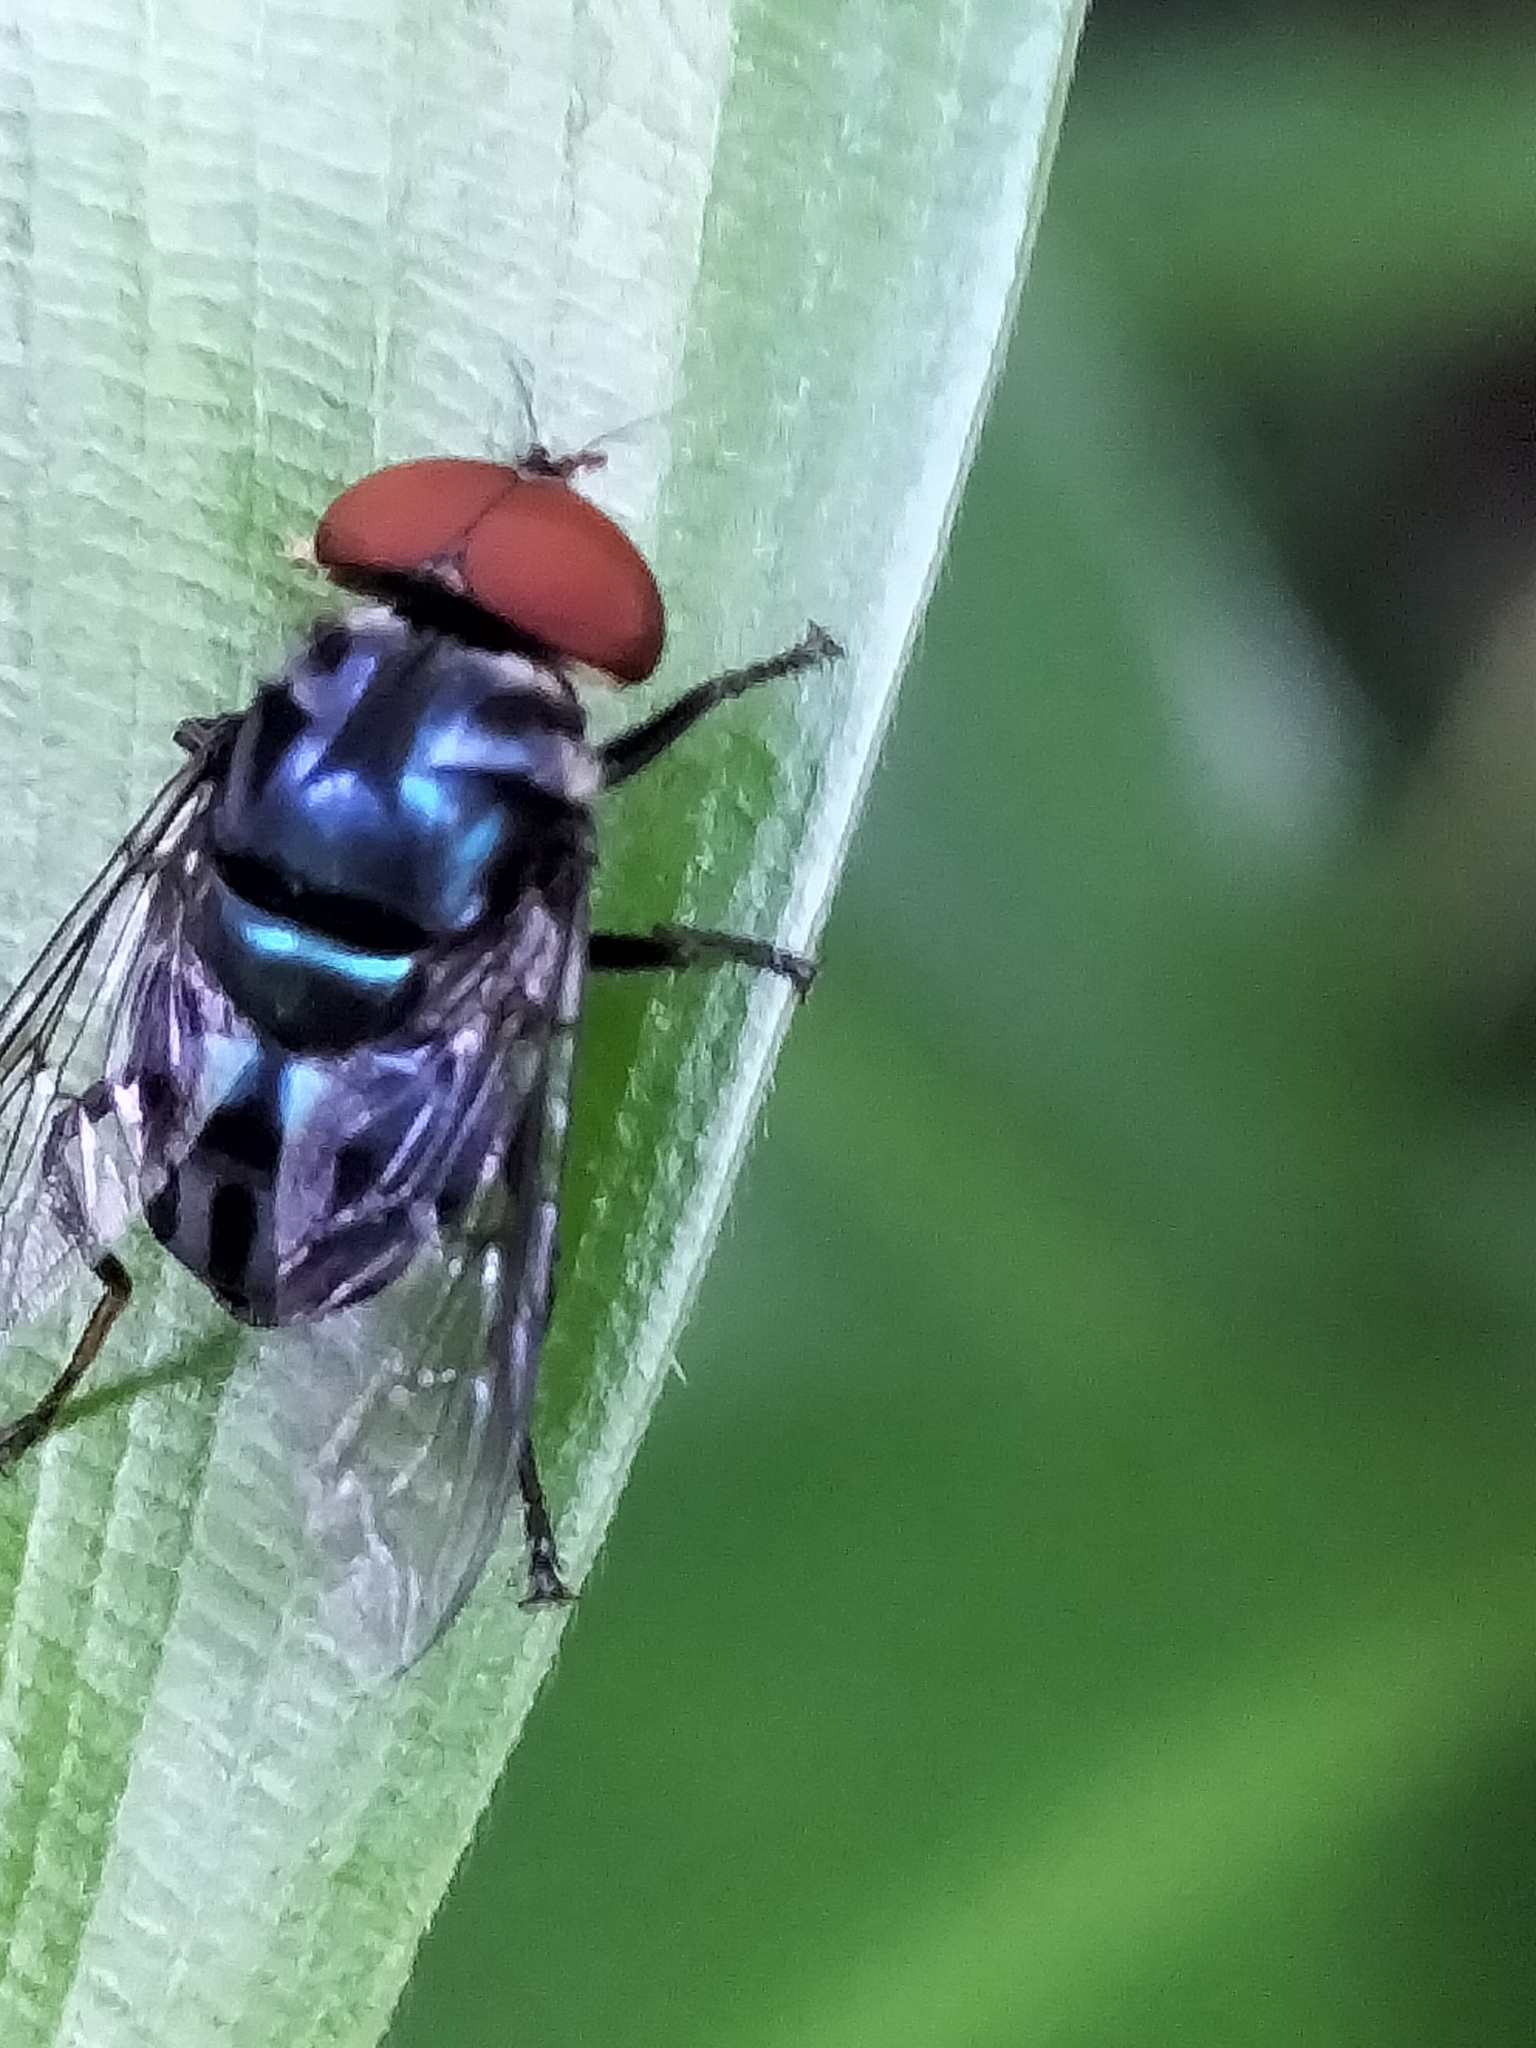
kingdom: Animalia
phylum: Arthropoda
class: Insecta
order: Diptera
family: Syrphidae
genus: Austalis
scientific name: Austalis muscoides
